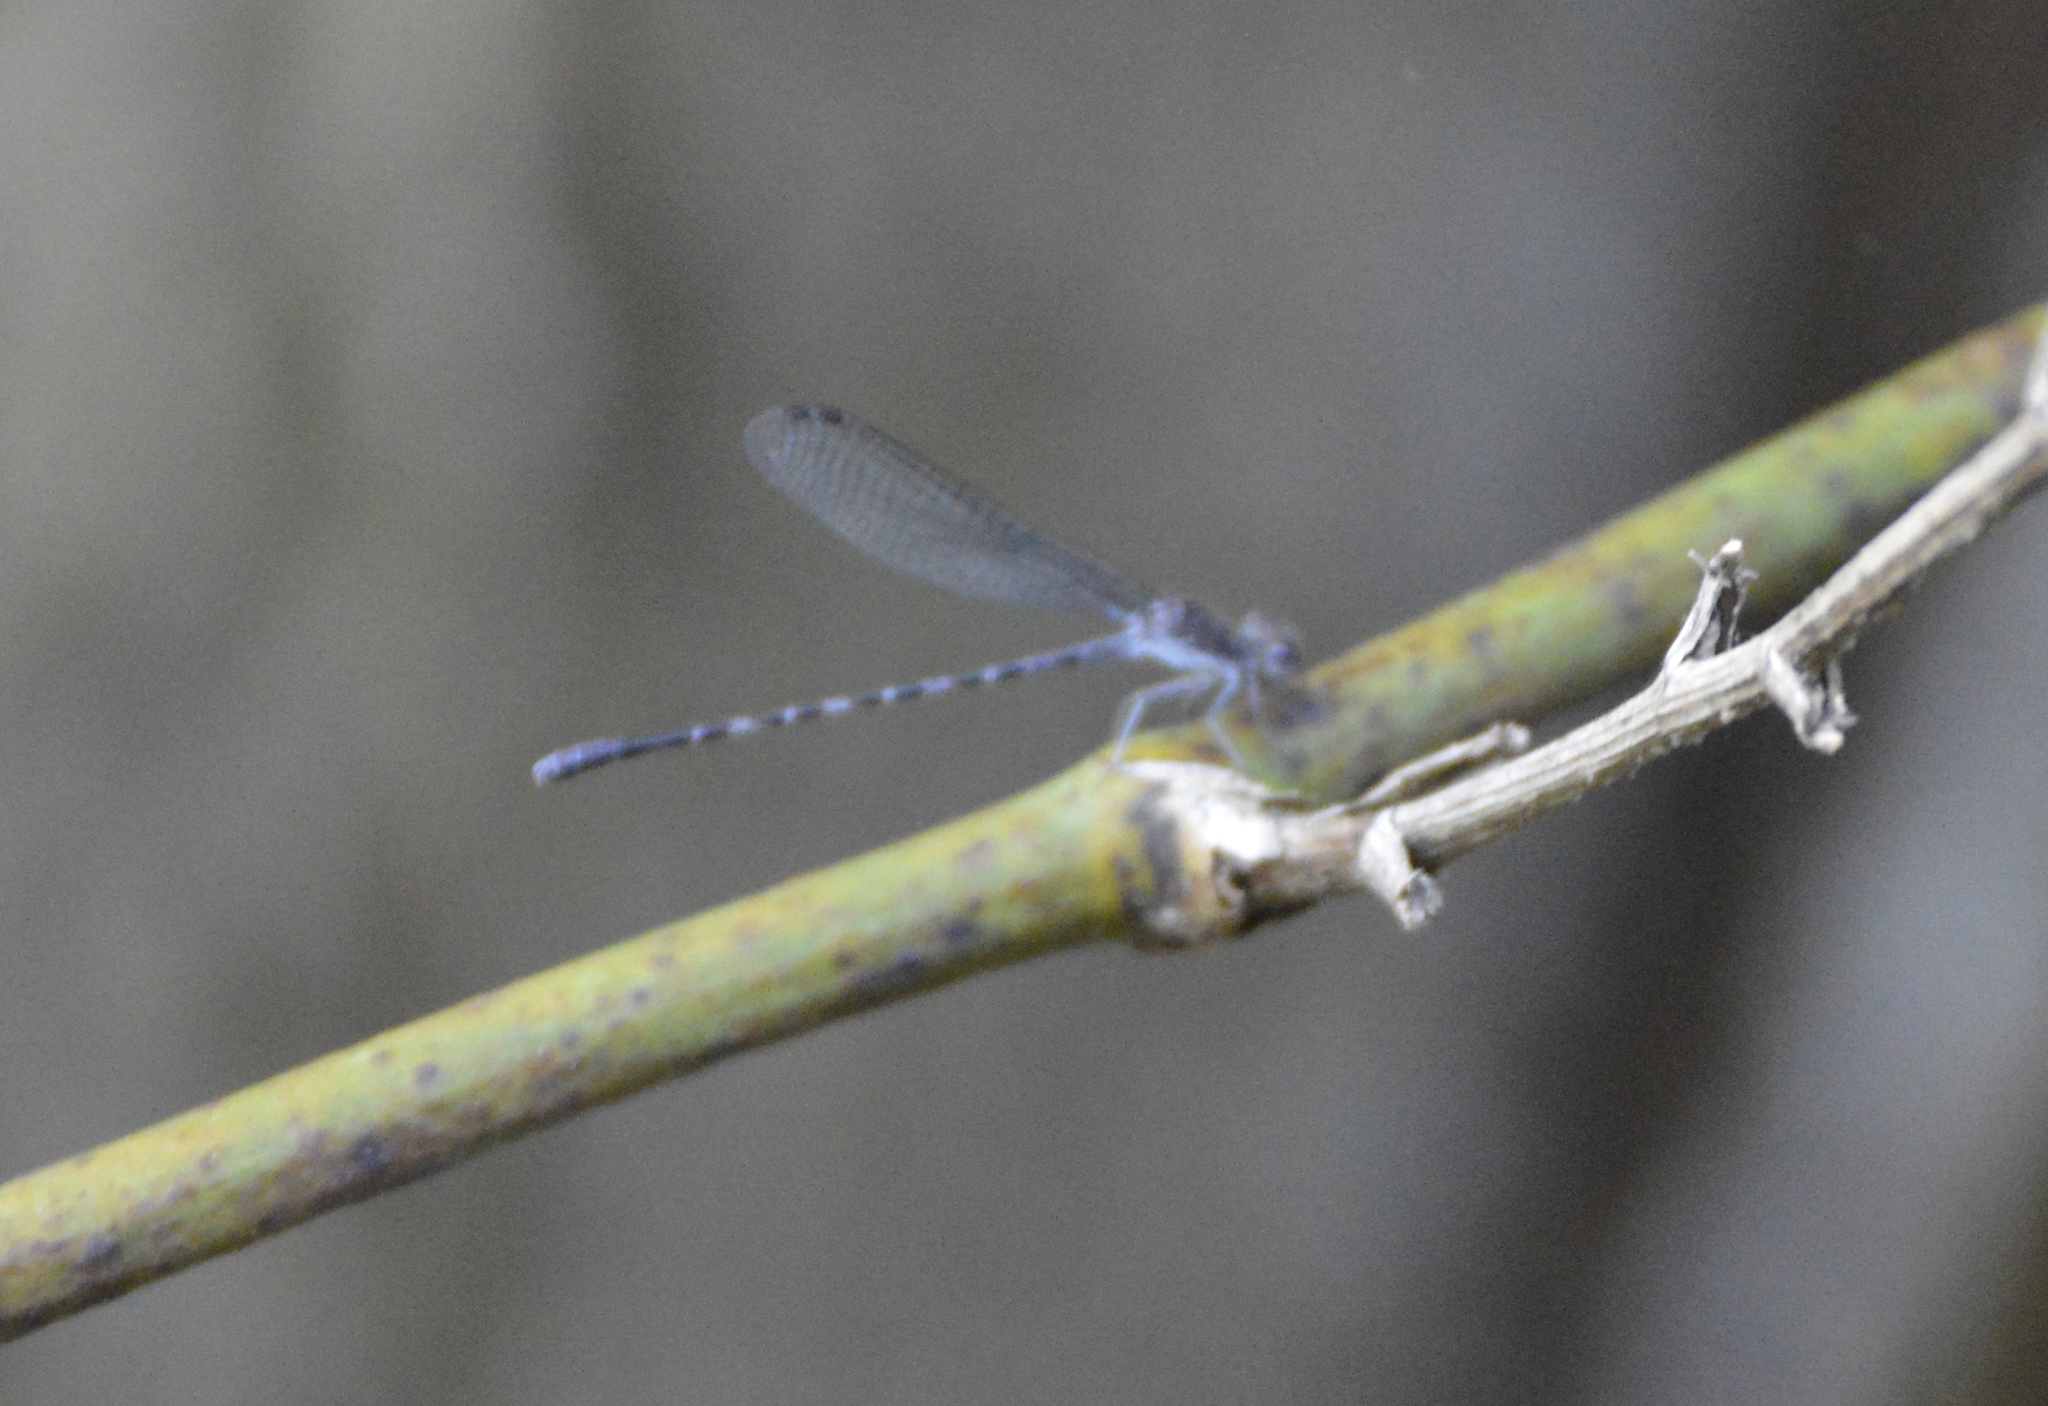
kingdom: Animalia
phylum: Arthropoda
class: Insecta
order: Odonata
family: Coenagrionidae
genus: Argia
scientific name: Argia immunda
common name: Kiowa dancer
